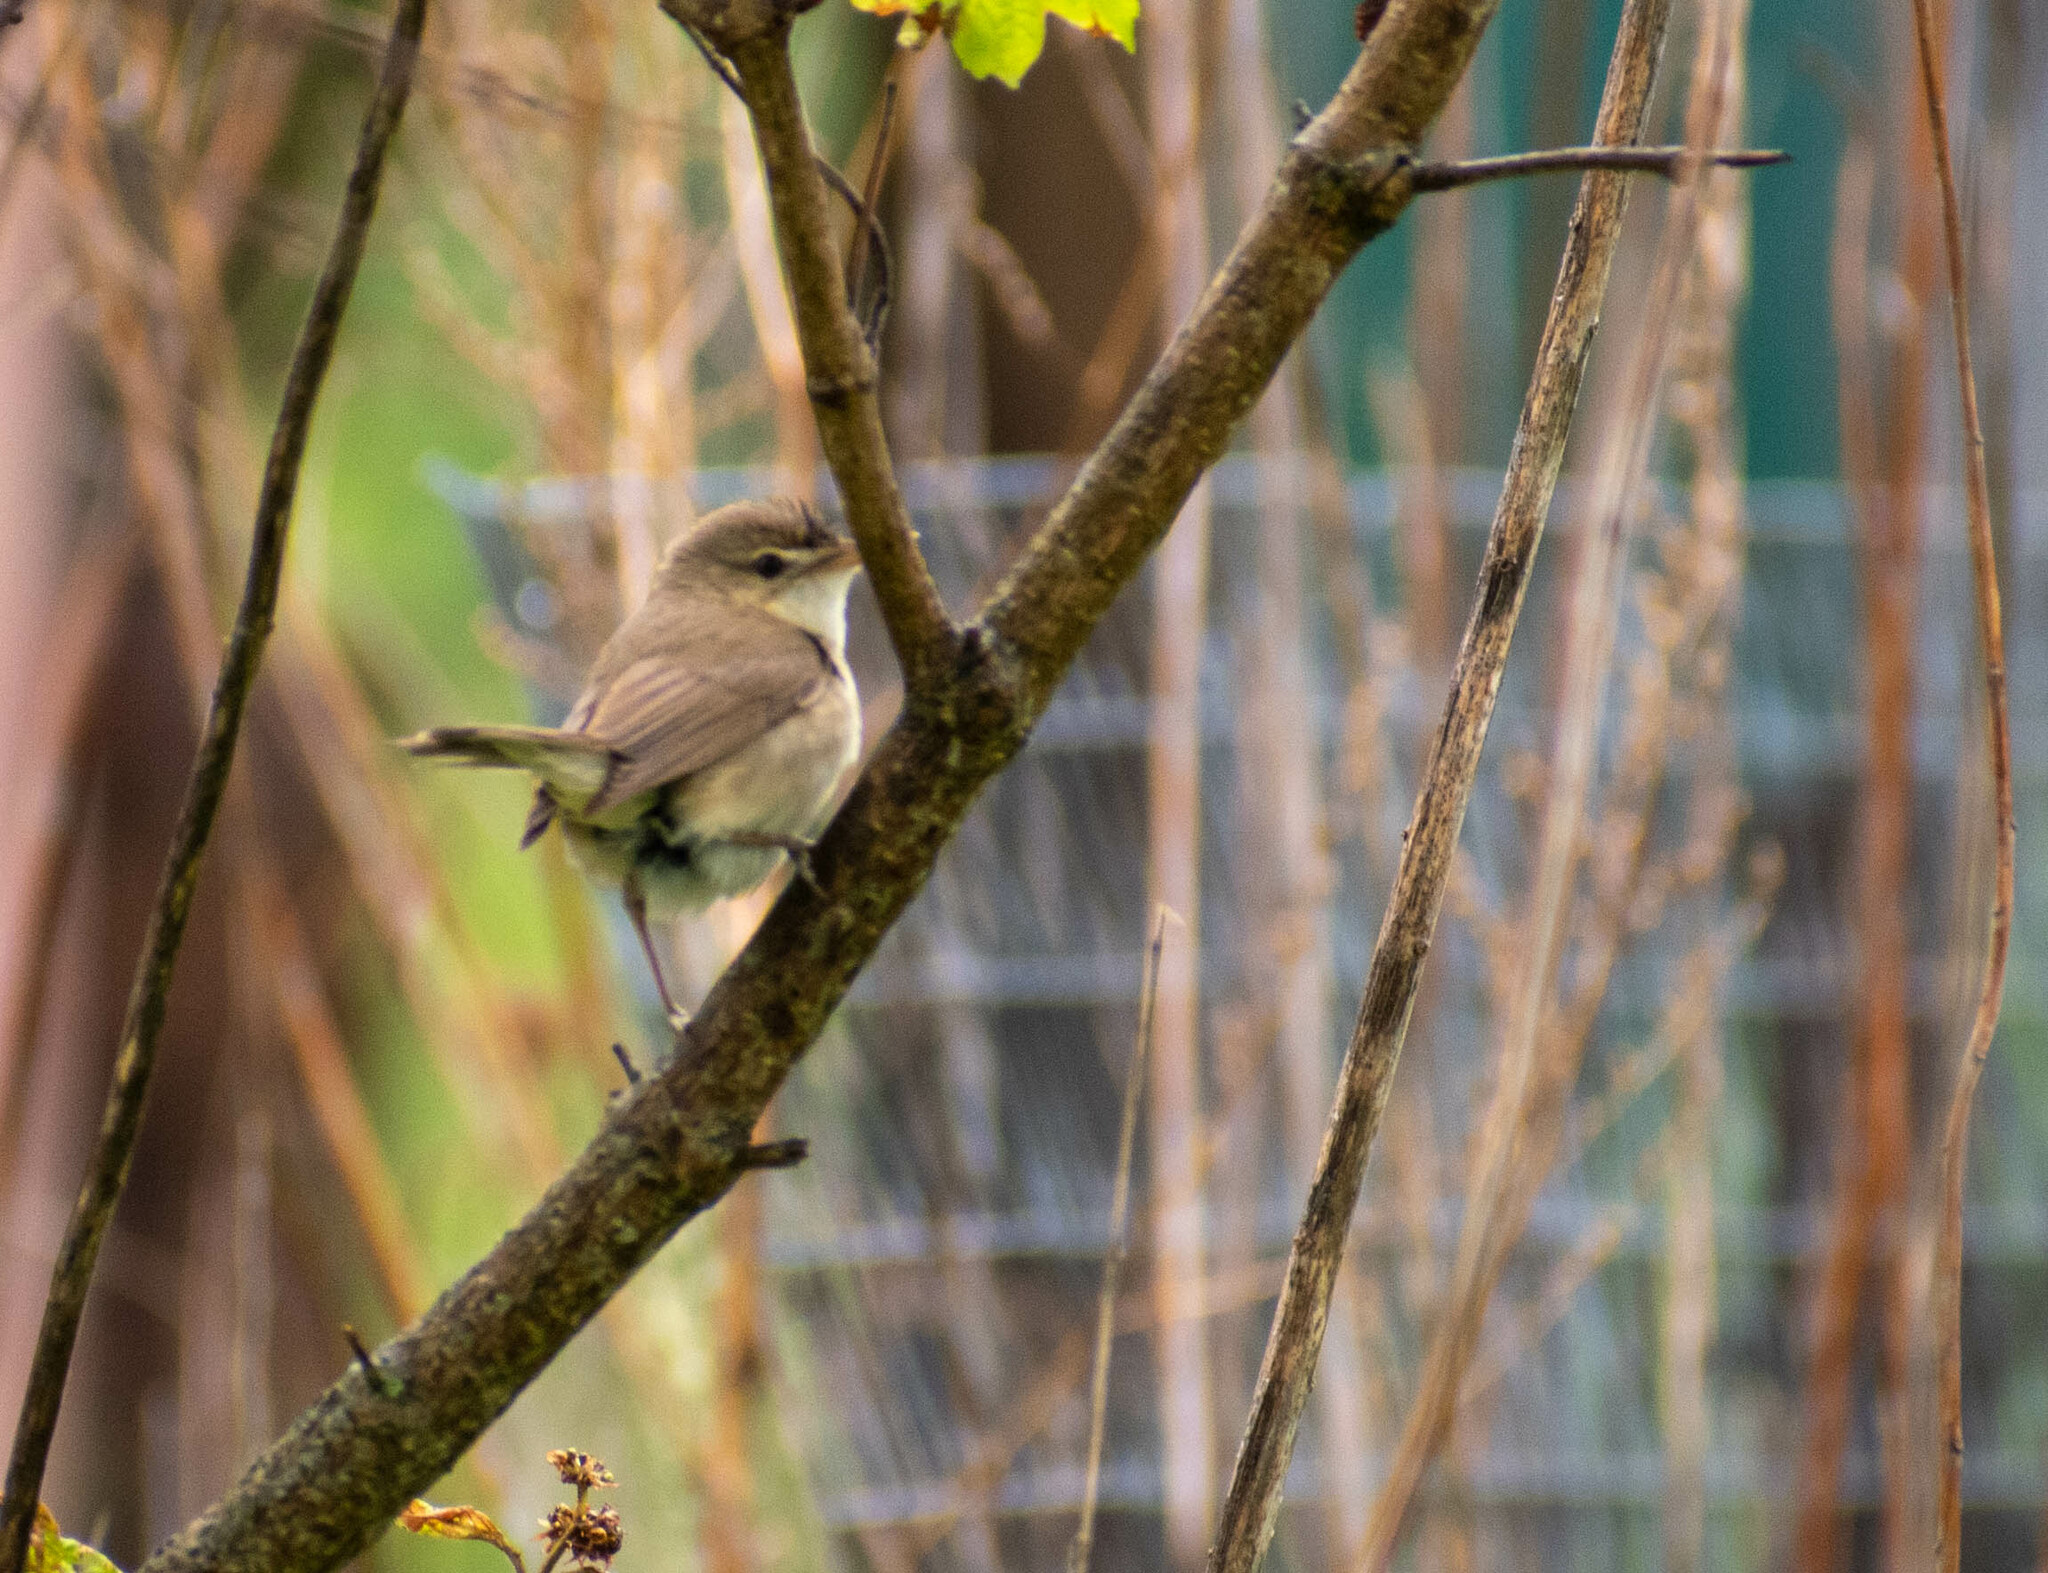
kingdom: Animalia
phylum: Chordata
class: Aves
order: Passeriformes
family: Acrocephalidae
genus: Acrocephalus
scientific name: Acrocephalus dumetorum
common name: Blyth's reed warbler
